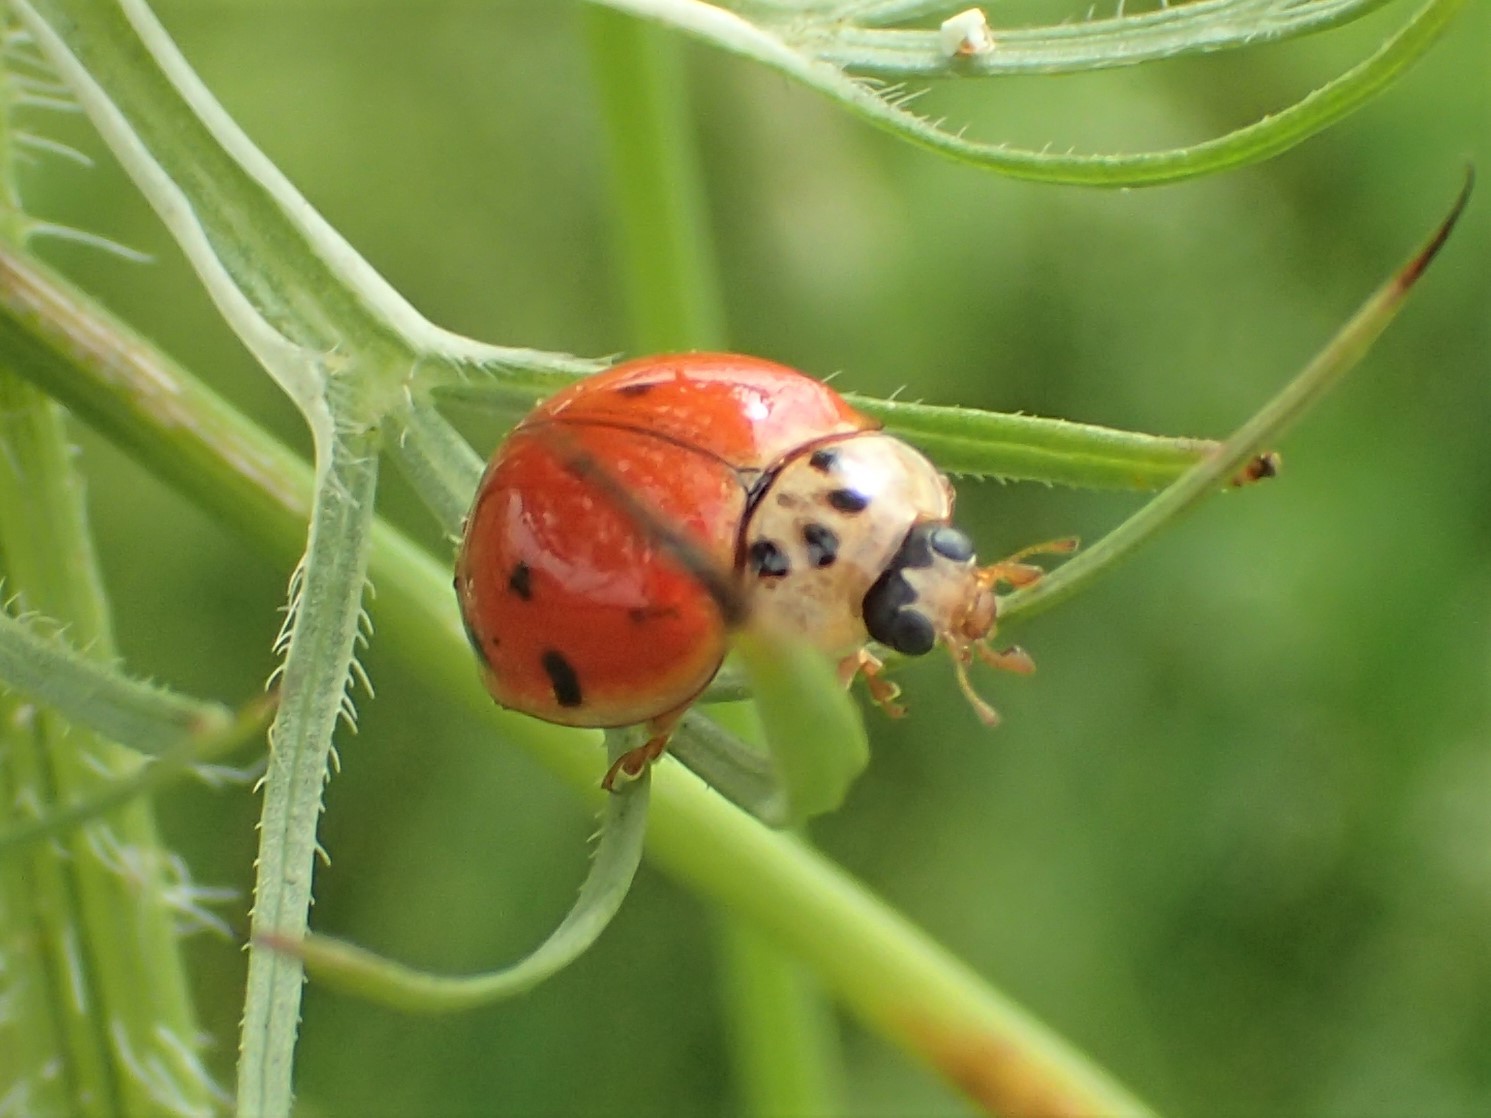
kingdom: Animalia
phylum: Arthropoda
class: Insecta
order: Coleoptera
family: Coccinellidae
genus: Harmonia
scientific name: Harmonia axyridis
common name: Harlequin ladybird
